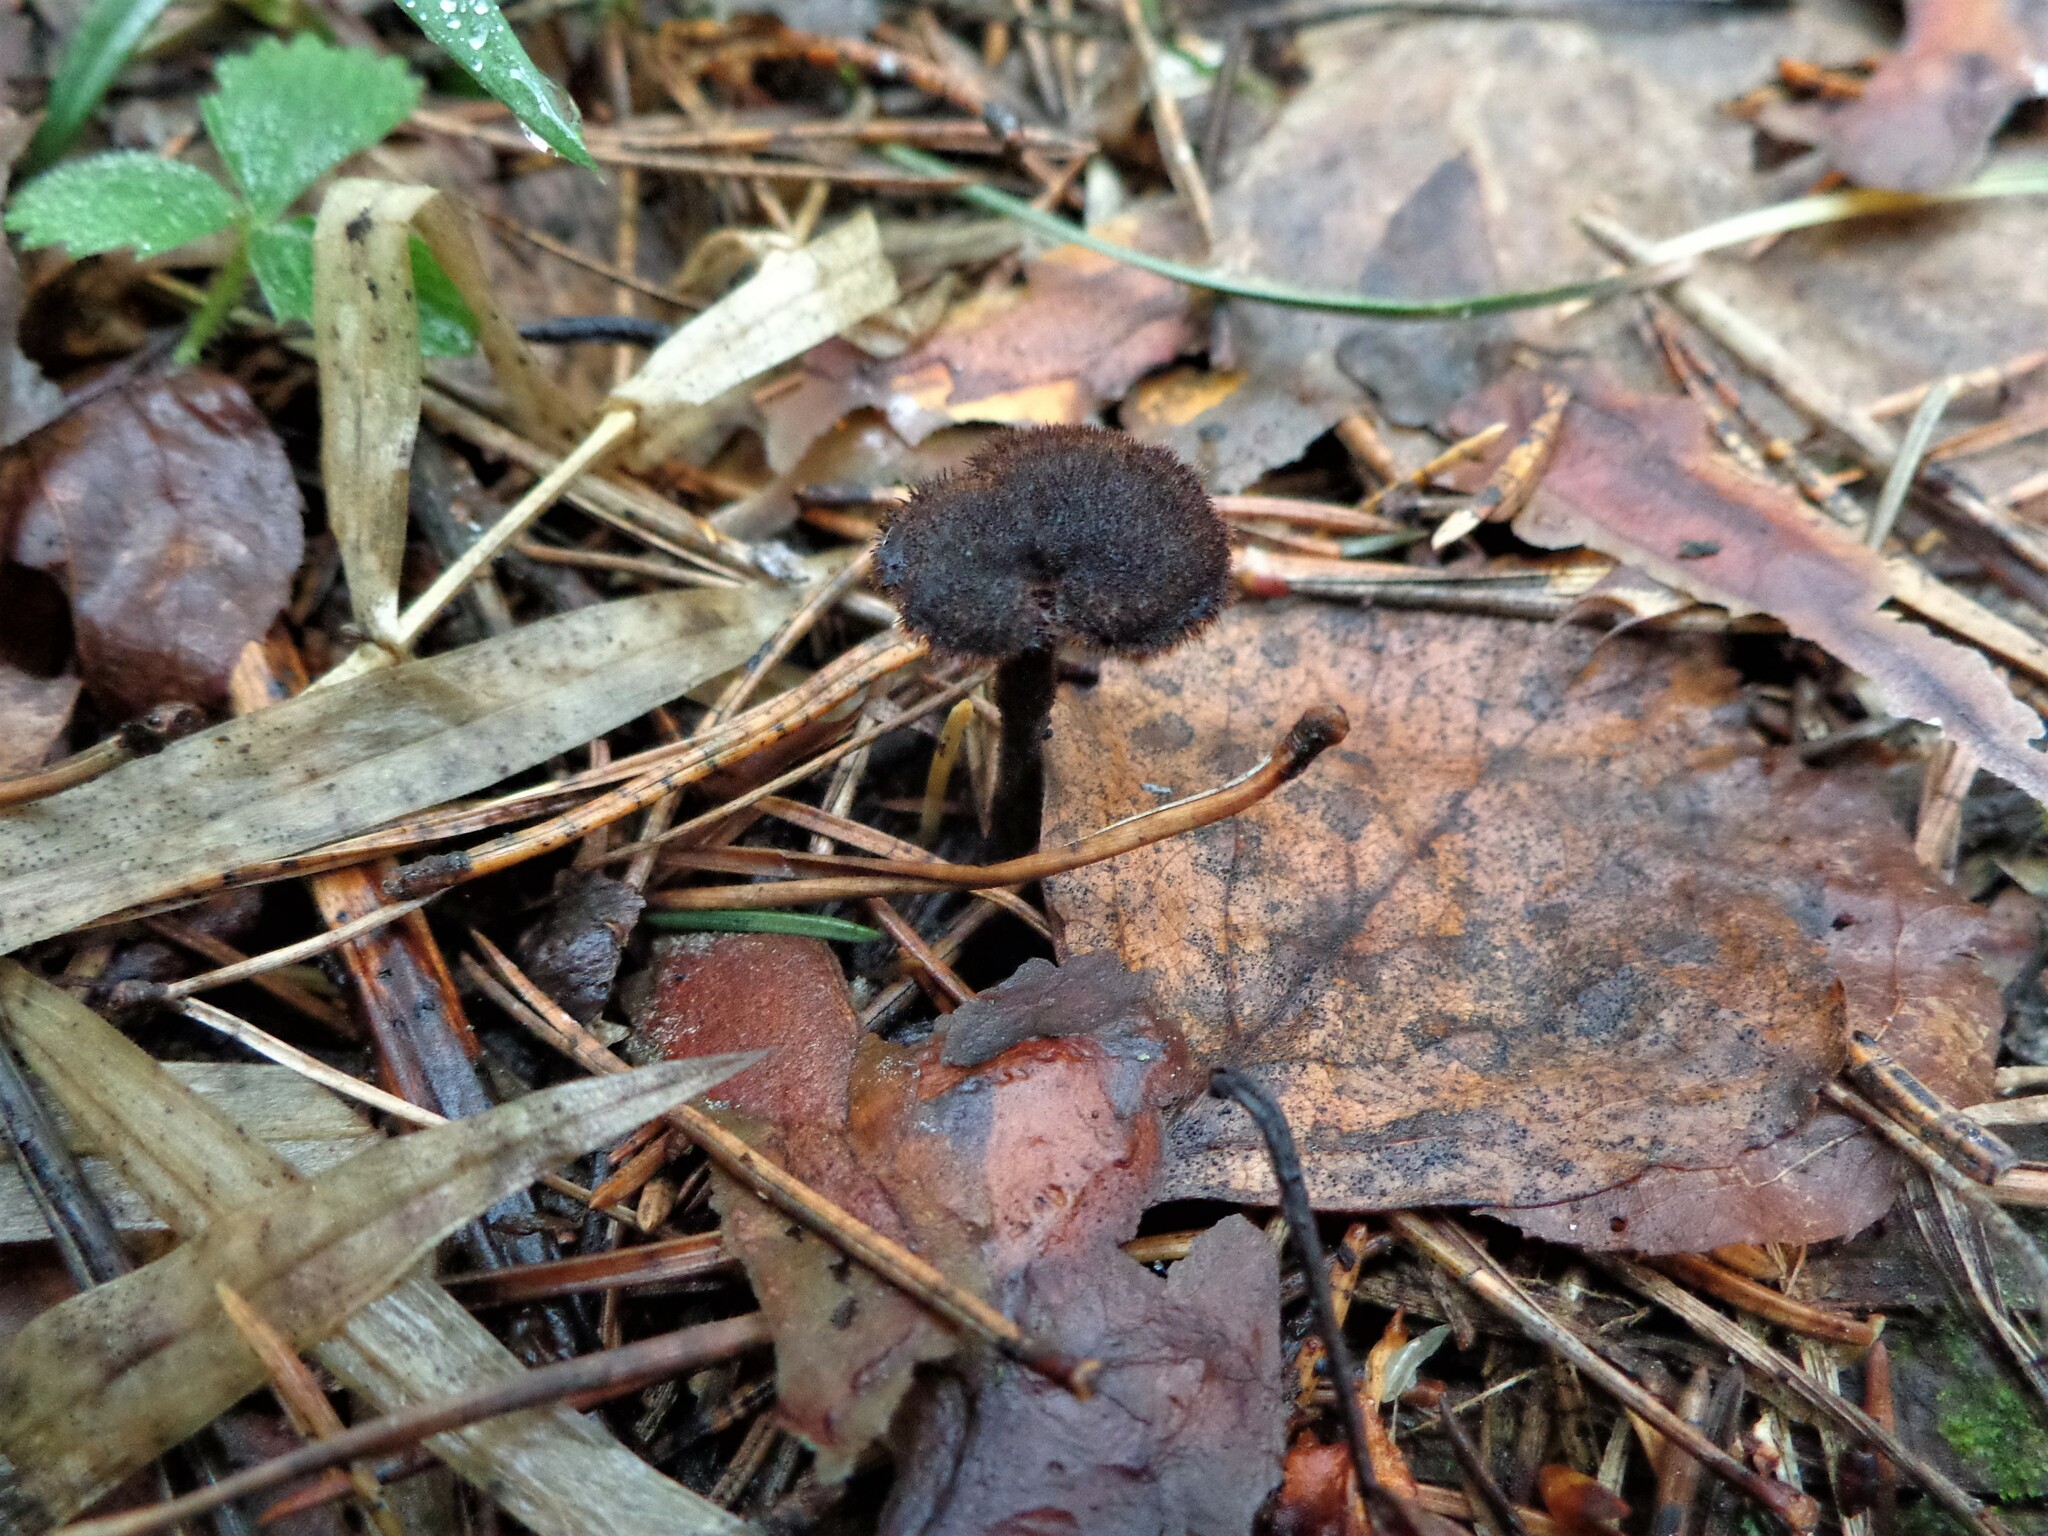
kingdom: Fungi
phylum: Basidiomycota
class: Agaricomycetes
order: Russulales
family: Auriscalpiaceae
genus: Auriscalpium
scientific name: Auriscalpium vulgare
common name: Earpick fungus
